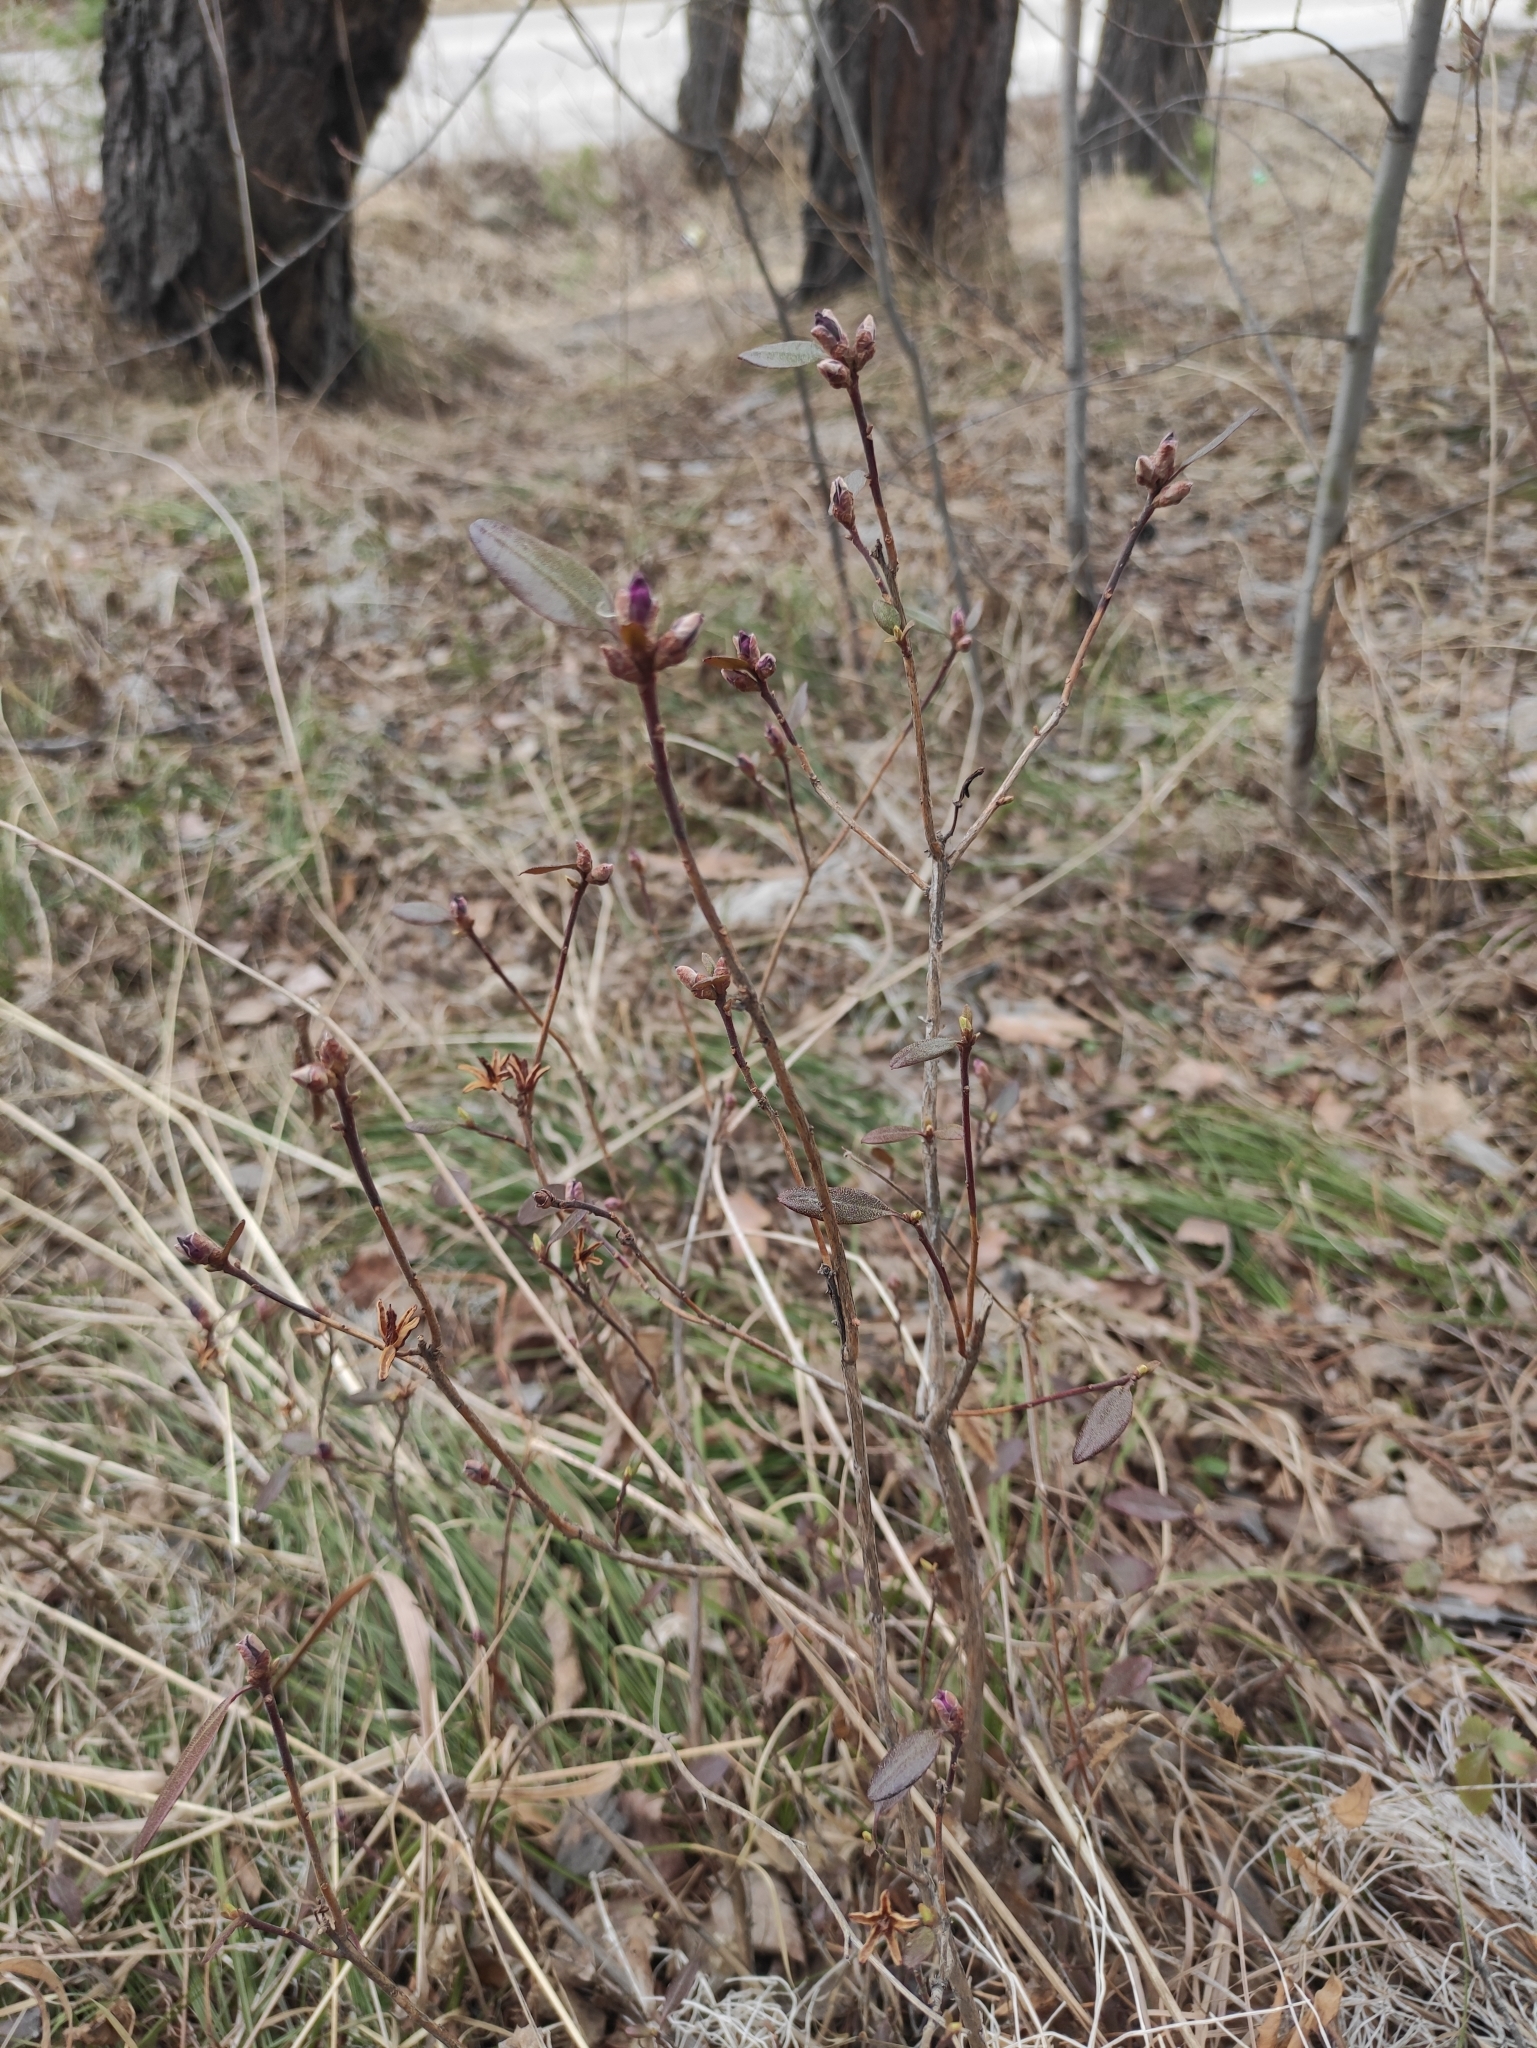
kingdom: Plantae
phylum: Tracheophyta
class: Magnoliopsida
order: Ericales
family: Ericaceae
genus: Rhododendron
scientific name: Rhododendron dauricum
